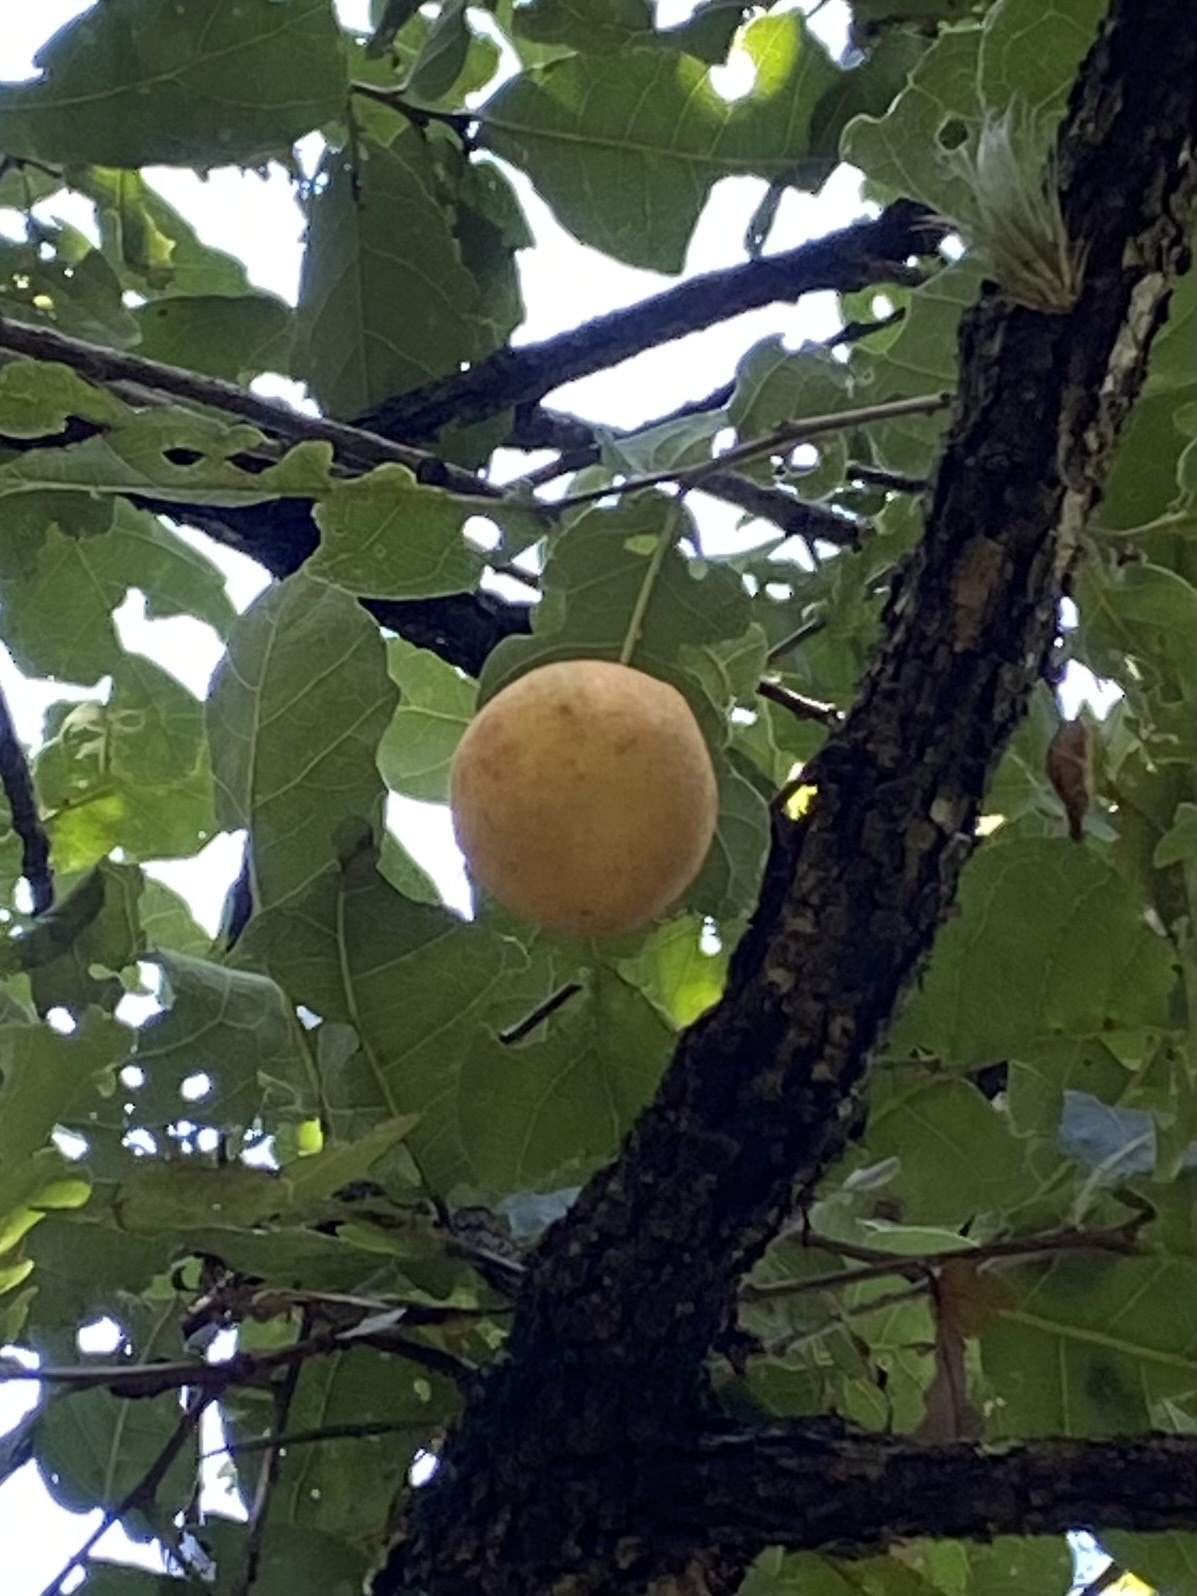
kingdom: Animalia
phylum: Arthropoda
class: Insecta
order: Hymenoptera
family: Cynipidae
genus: Kinseyella
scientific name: Kinseyella
